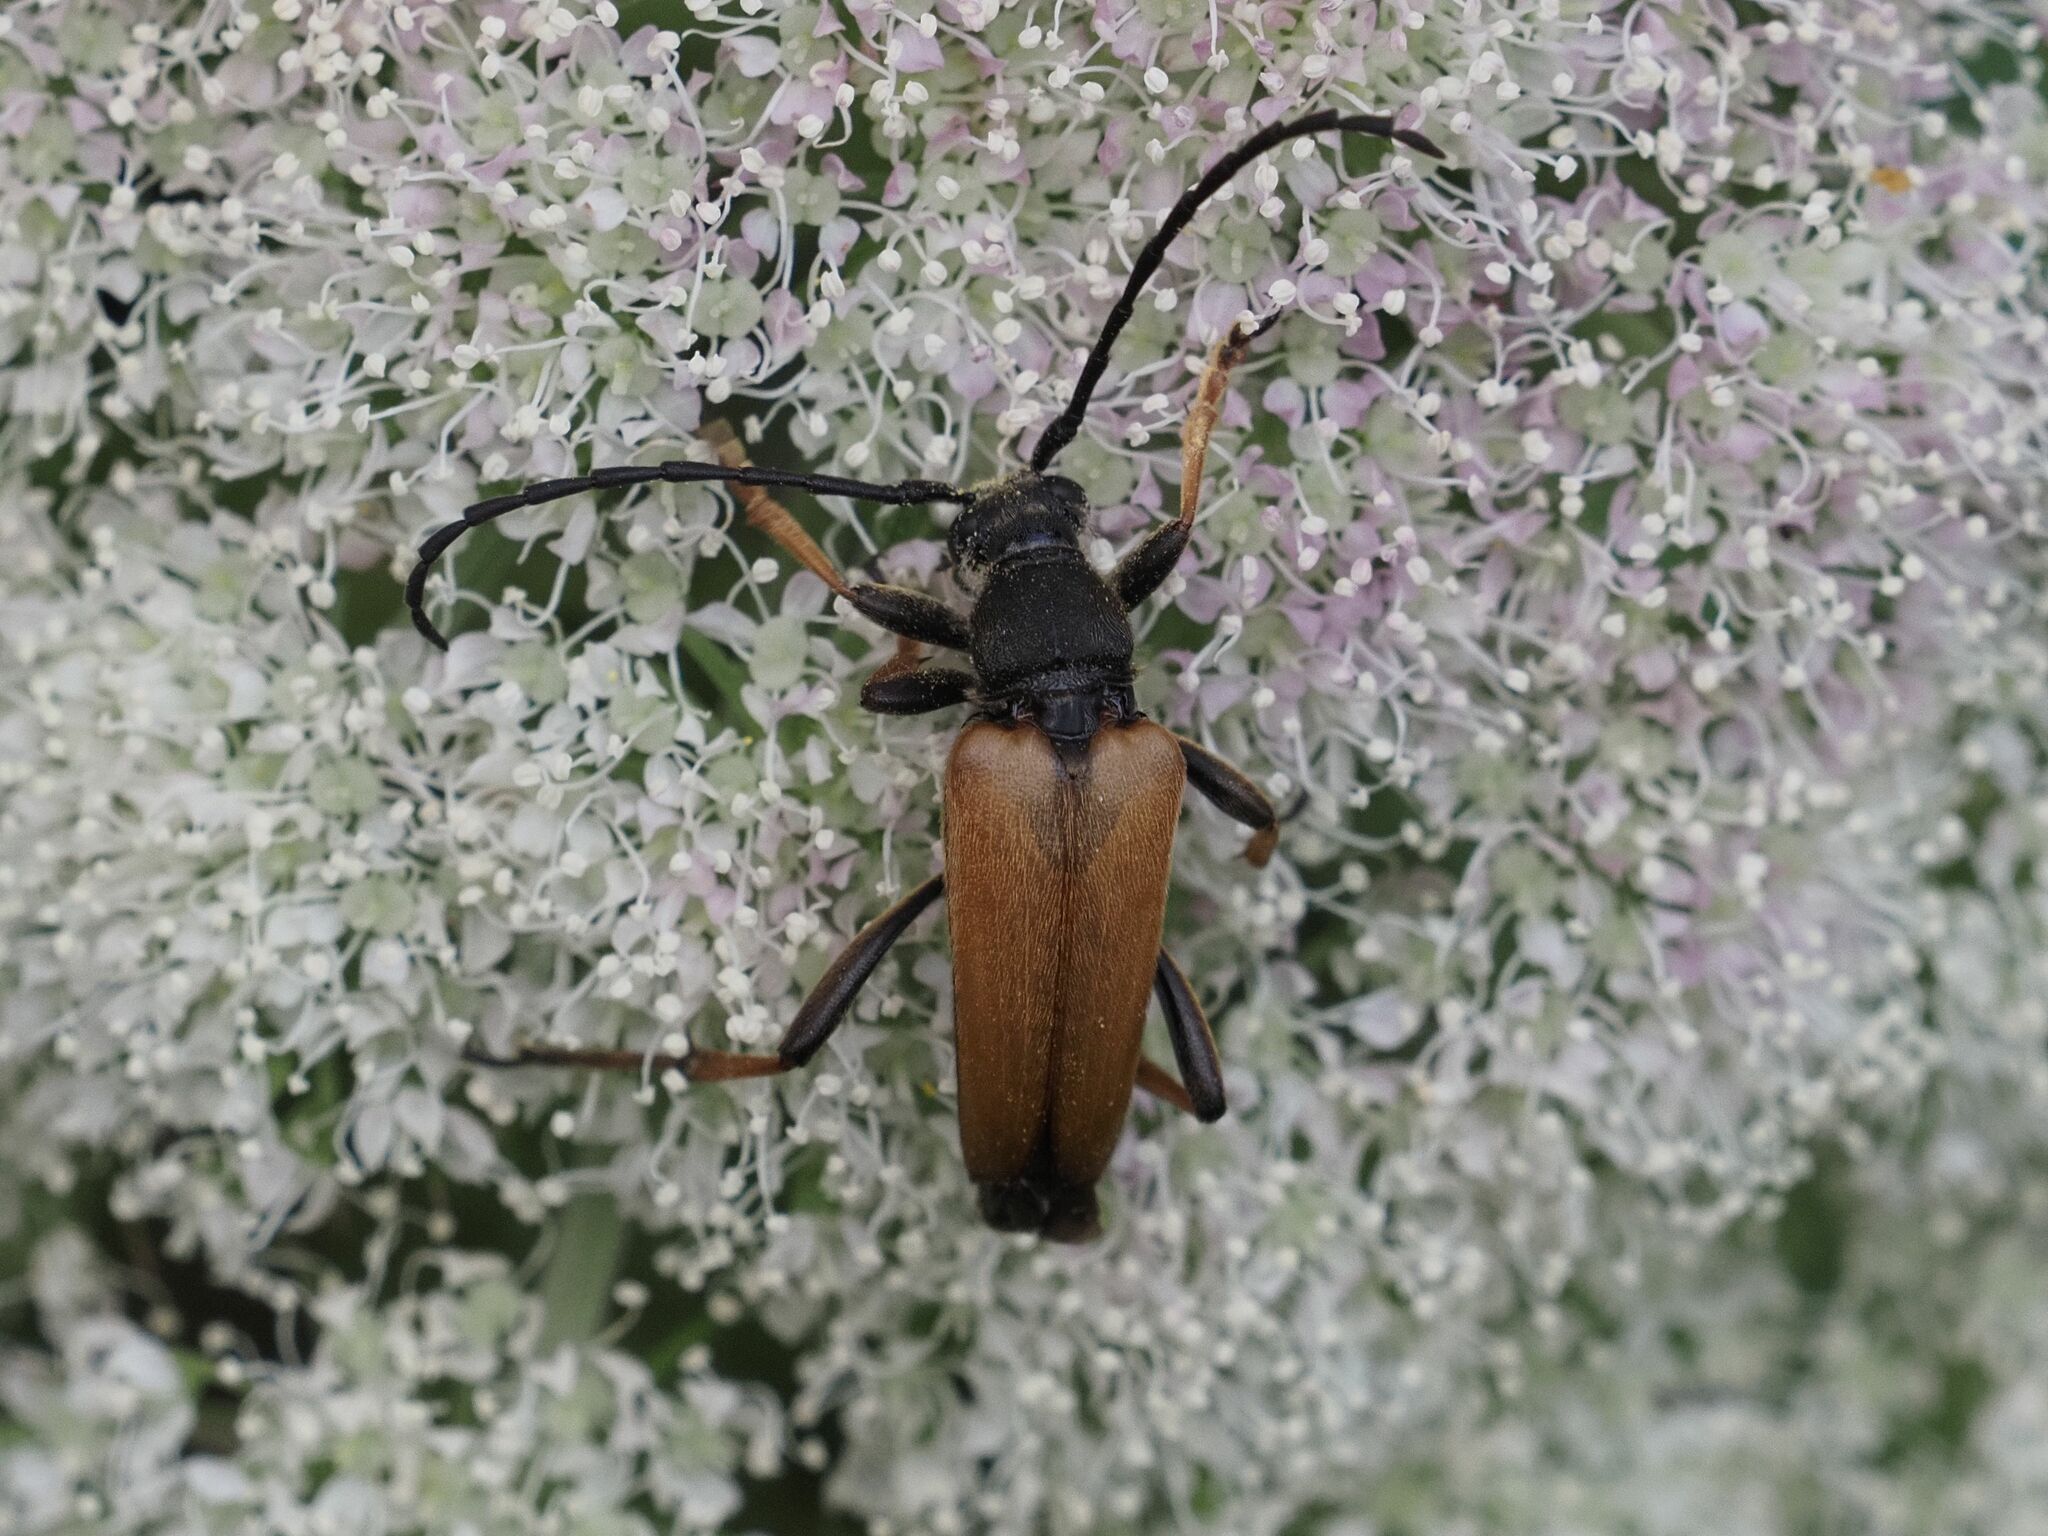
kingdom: Animalia
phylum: Arthropoda
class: Insecta
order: Coleoptera
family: Cerambycidae
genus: Stictoleptura
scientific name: Stictoleptura rubra
